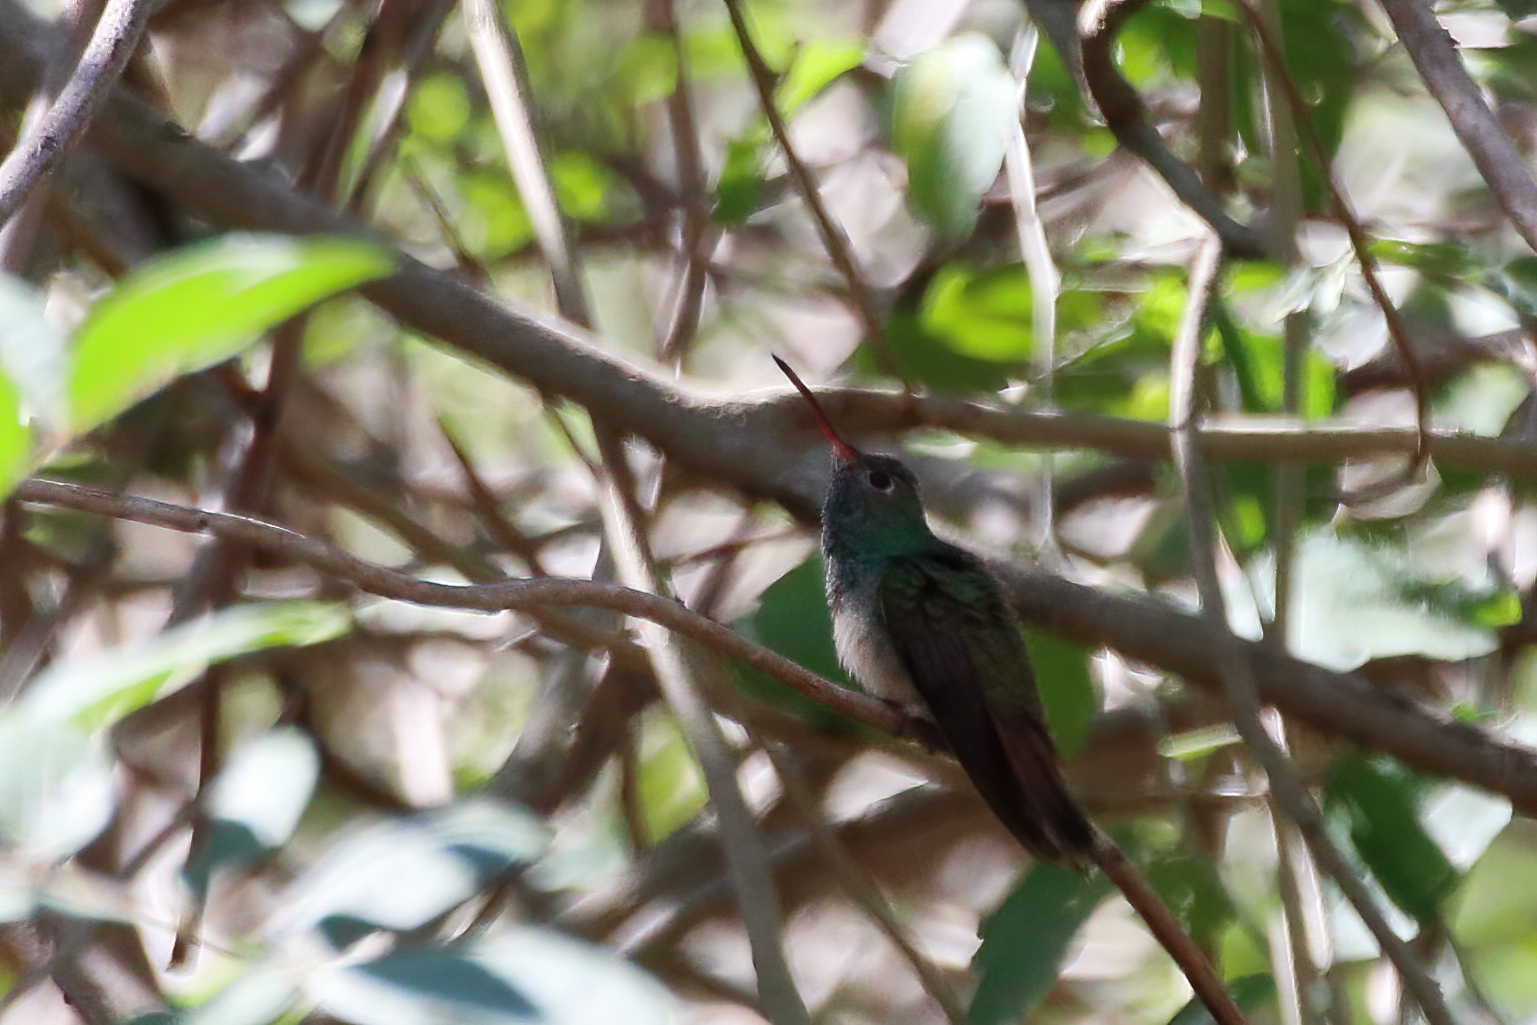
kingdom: Animalia
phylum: Chordata
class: Aves
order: Apodiformes
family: Trochilidae
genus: Amazilia
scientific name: Amazilia yucatanensis
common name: Buff-bellied hummingbird
